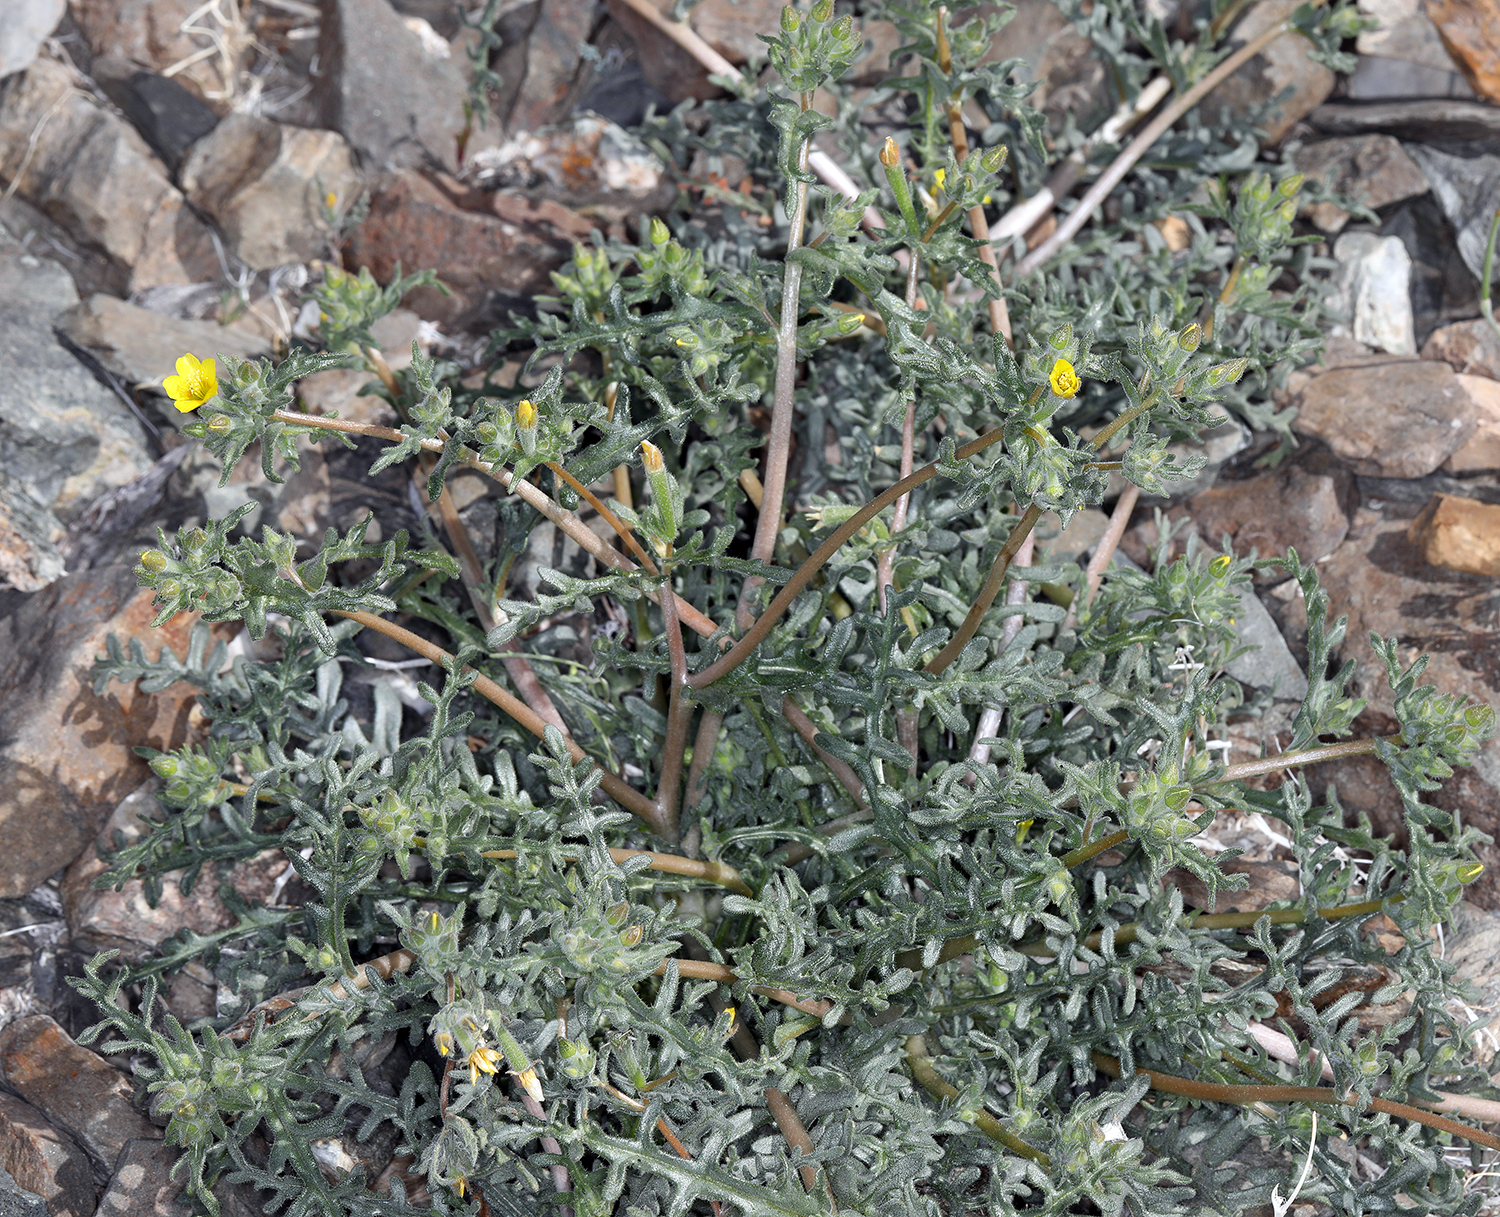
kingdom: Plantae
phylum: Tracheophyta
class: Magnoliopsida
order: Cornales
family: Loasaceae
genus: Mentzelia
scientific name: Mentzelia albicaulis
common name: White-stem blazingstar
